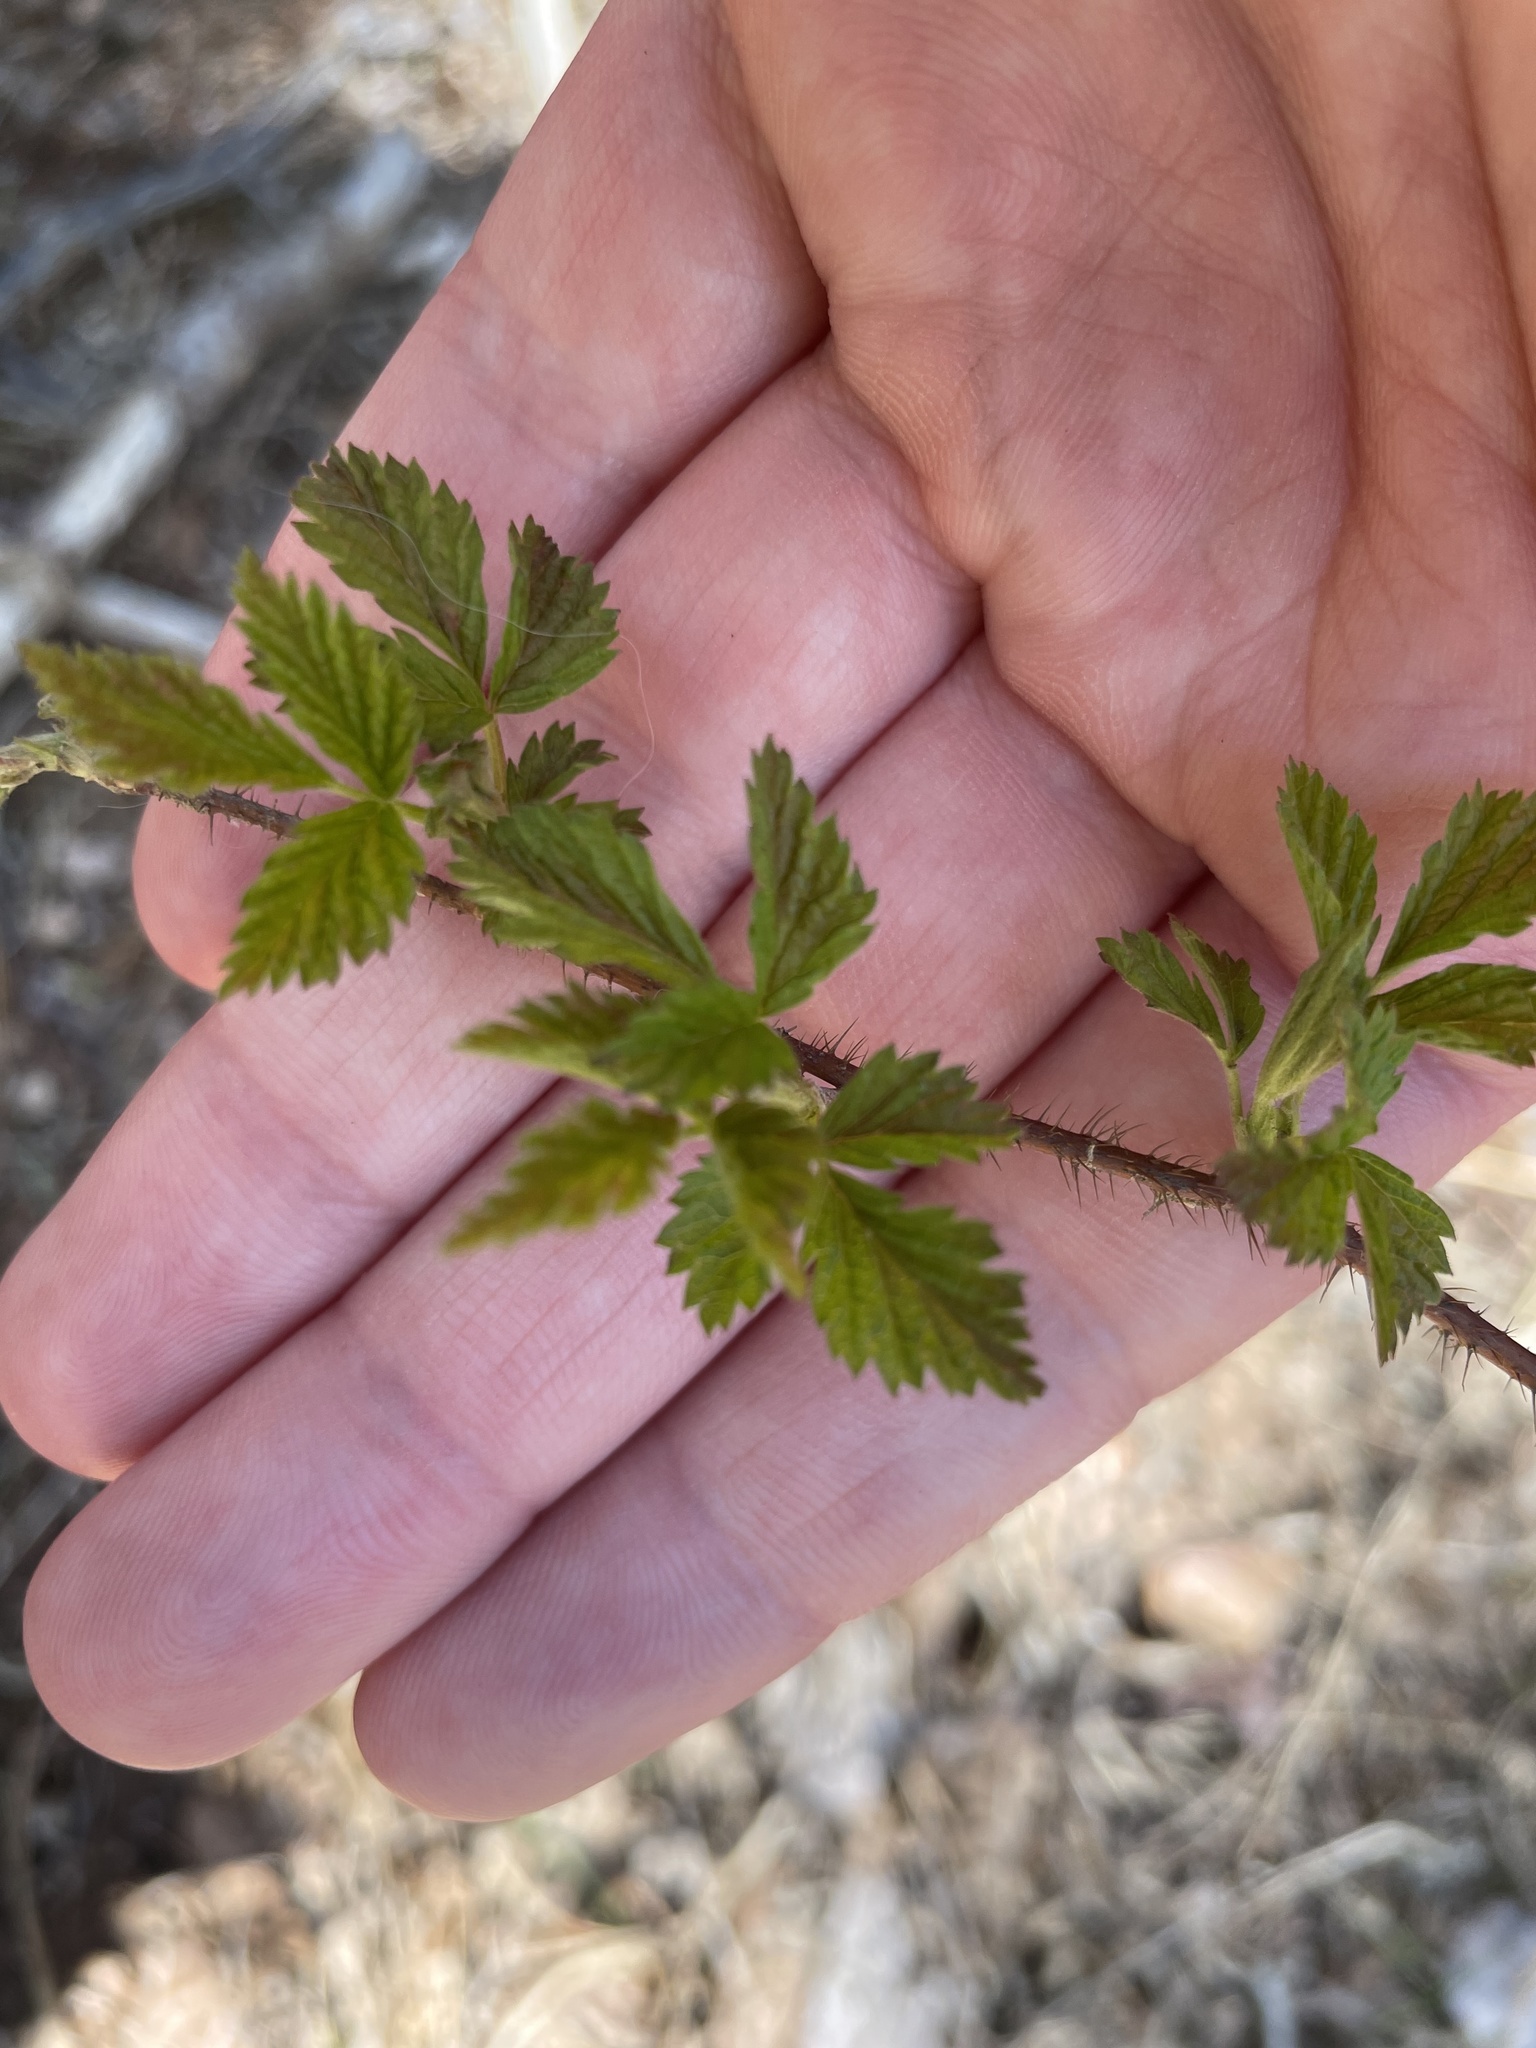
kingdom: Plantae
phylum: Tracheophyta
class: Magnoliopsida
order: Rosales
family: Rosaceae
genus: Rubus
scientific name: Rubus idaeus
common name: Raspberry
